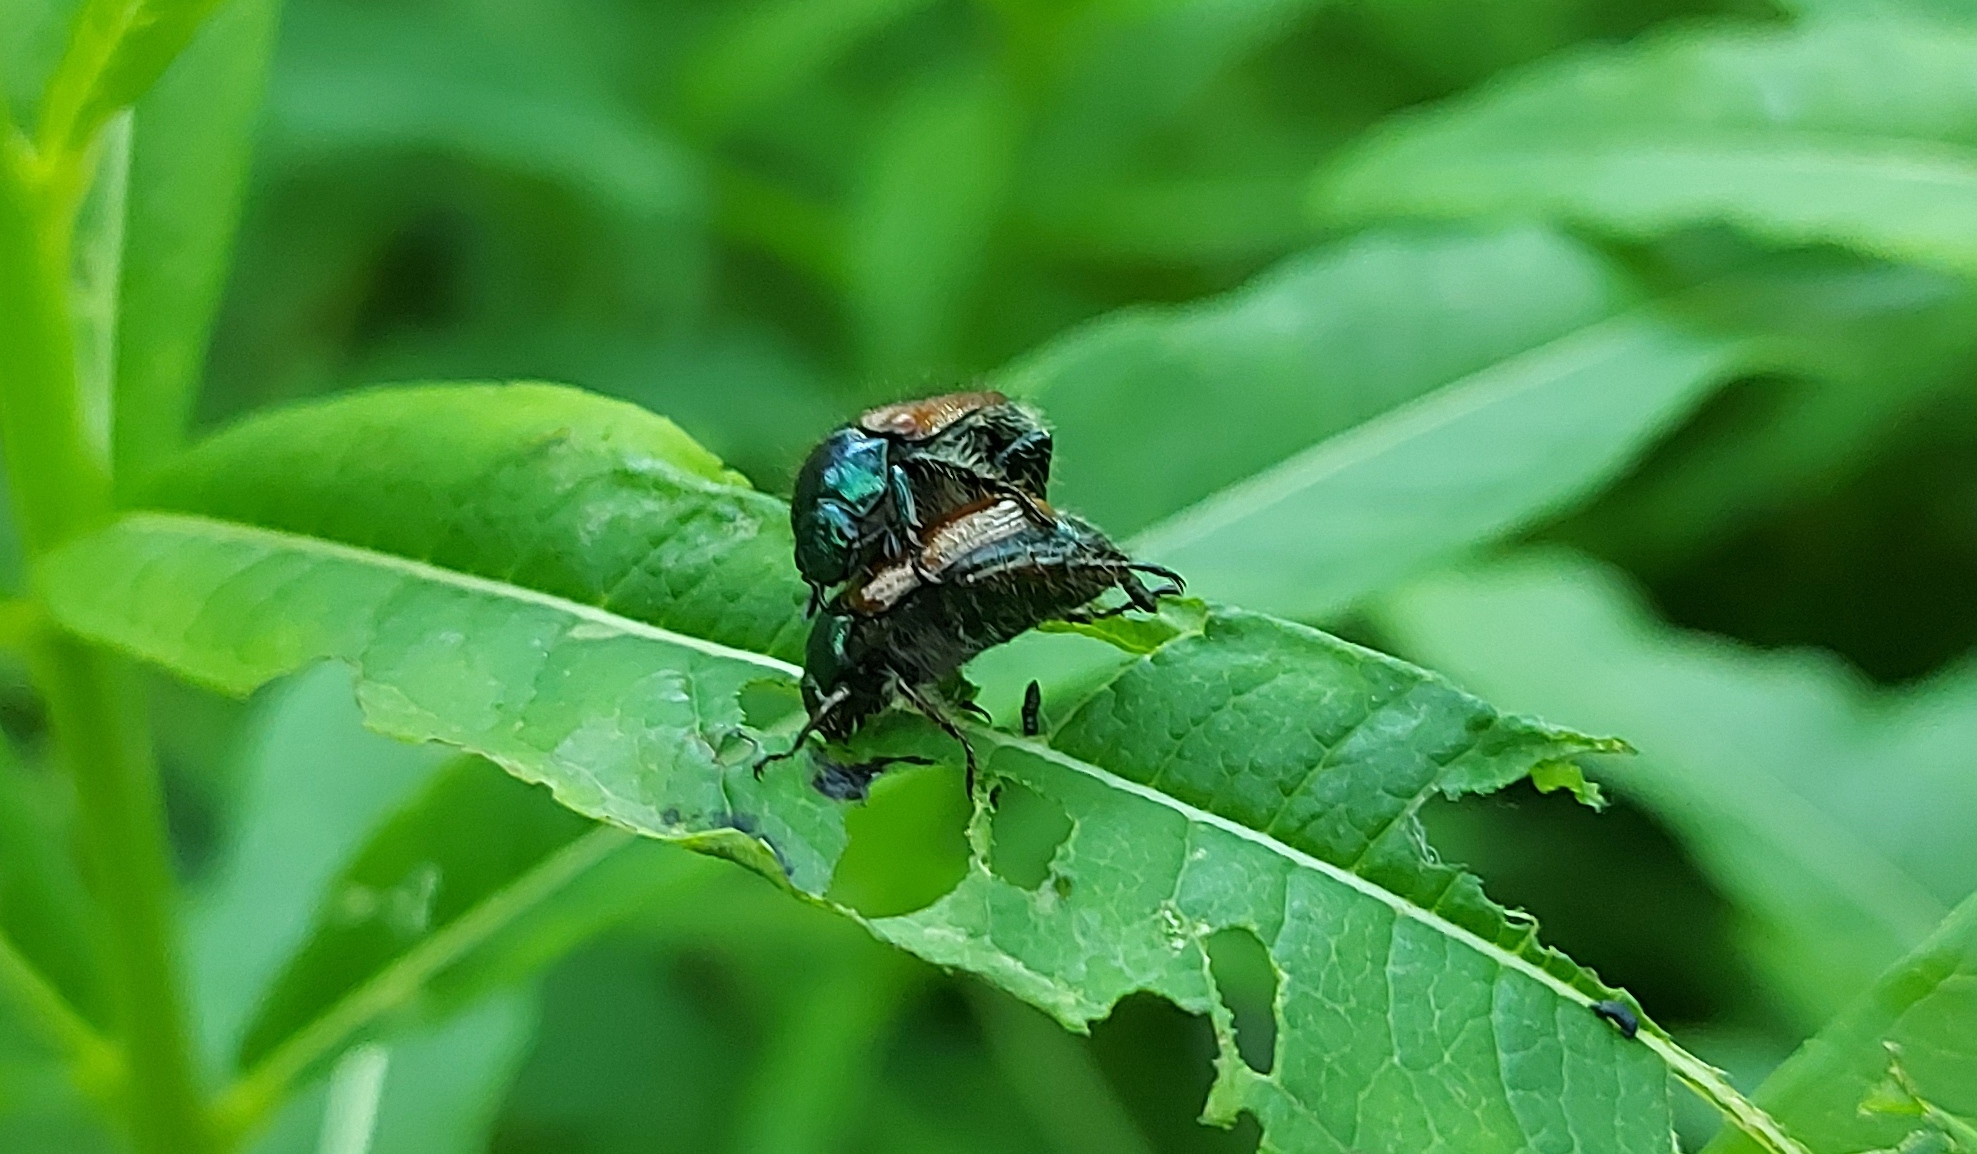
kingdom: Animalia
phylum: Arthropoda
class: Insecta
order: Coleoptera
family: Scarabaeidae
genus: Phyllopertha
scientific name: Phyllopertha horticola
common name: Garden chafer
